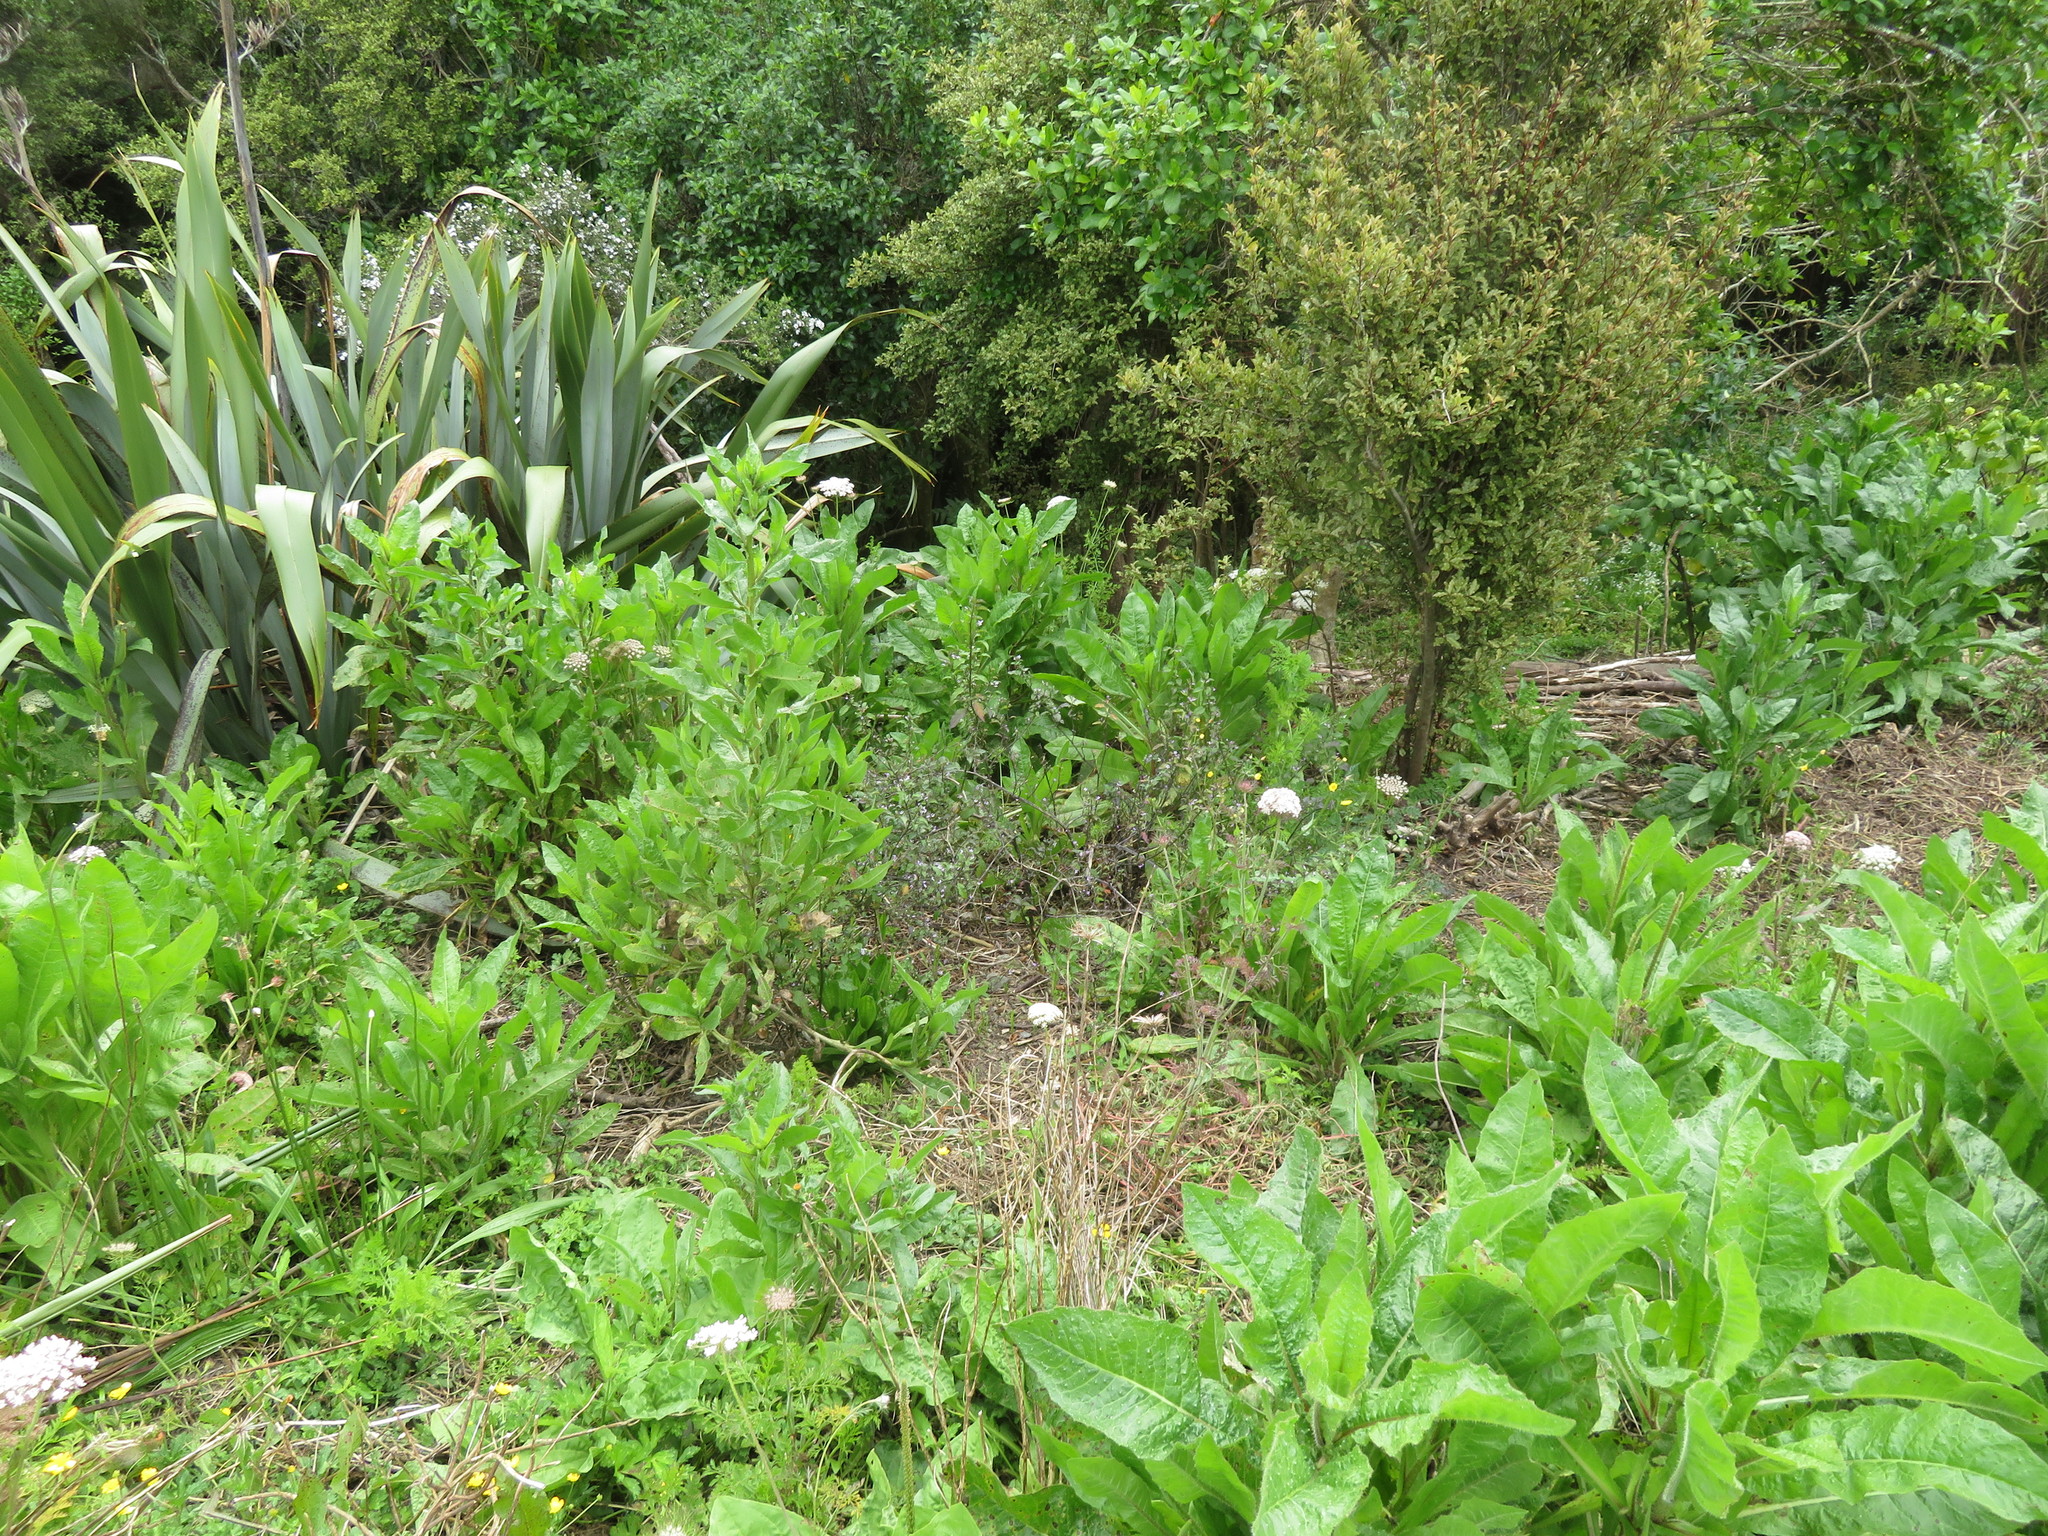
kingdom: Plantae
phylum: Tracheophyta
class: Magnoliopsida
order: Apiales
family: Apiaceae
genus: Daucus
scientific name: Daucus carota
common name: Wild carrot
